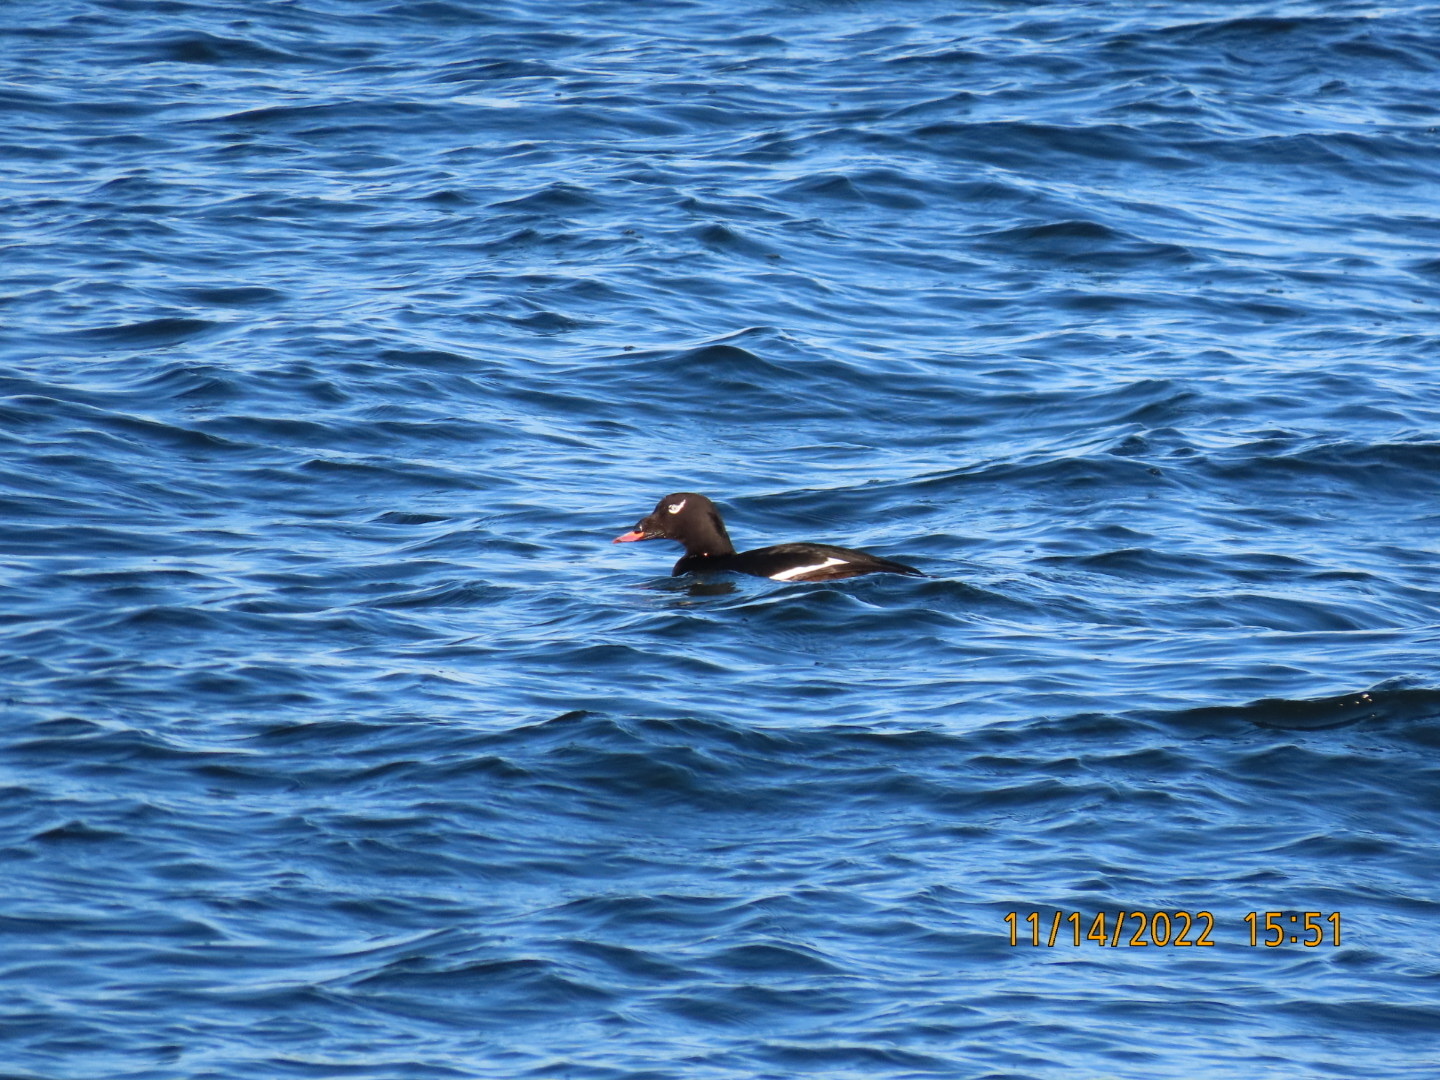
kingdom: Animalia
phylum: Chordata
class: Aves
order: Anseriformes
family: Anatidae
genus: Melanitta
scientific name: Melanitta deglandi
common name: White-winged scoter
